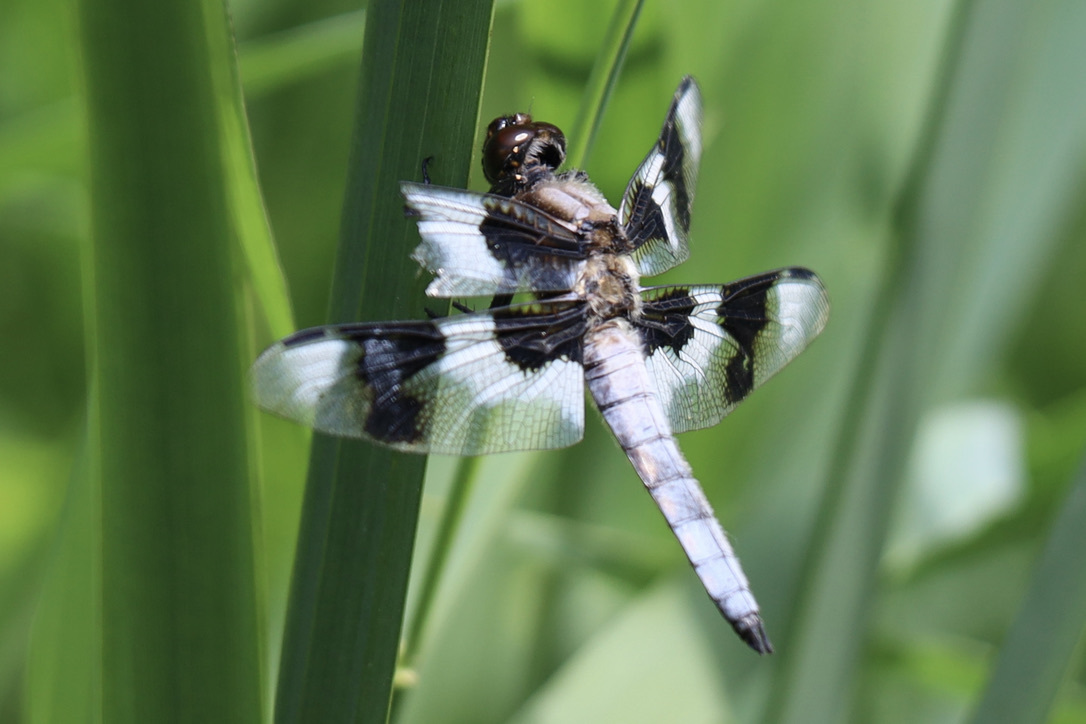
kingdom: Animalia
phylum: Arthropoda
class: Insecta
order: Odonata
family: Libellulidae
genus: Libellula
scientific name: Libellula forensis
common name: Eight-spotted skimmer
